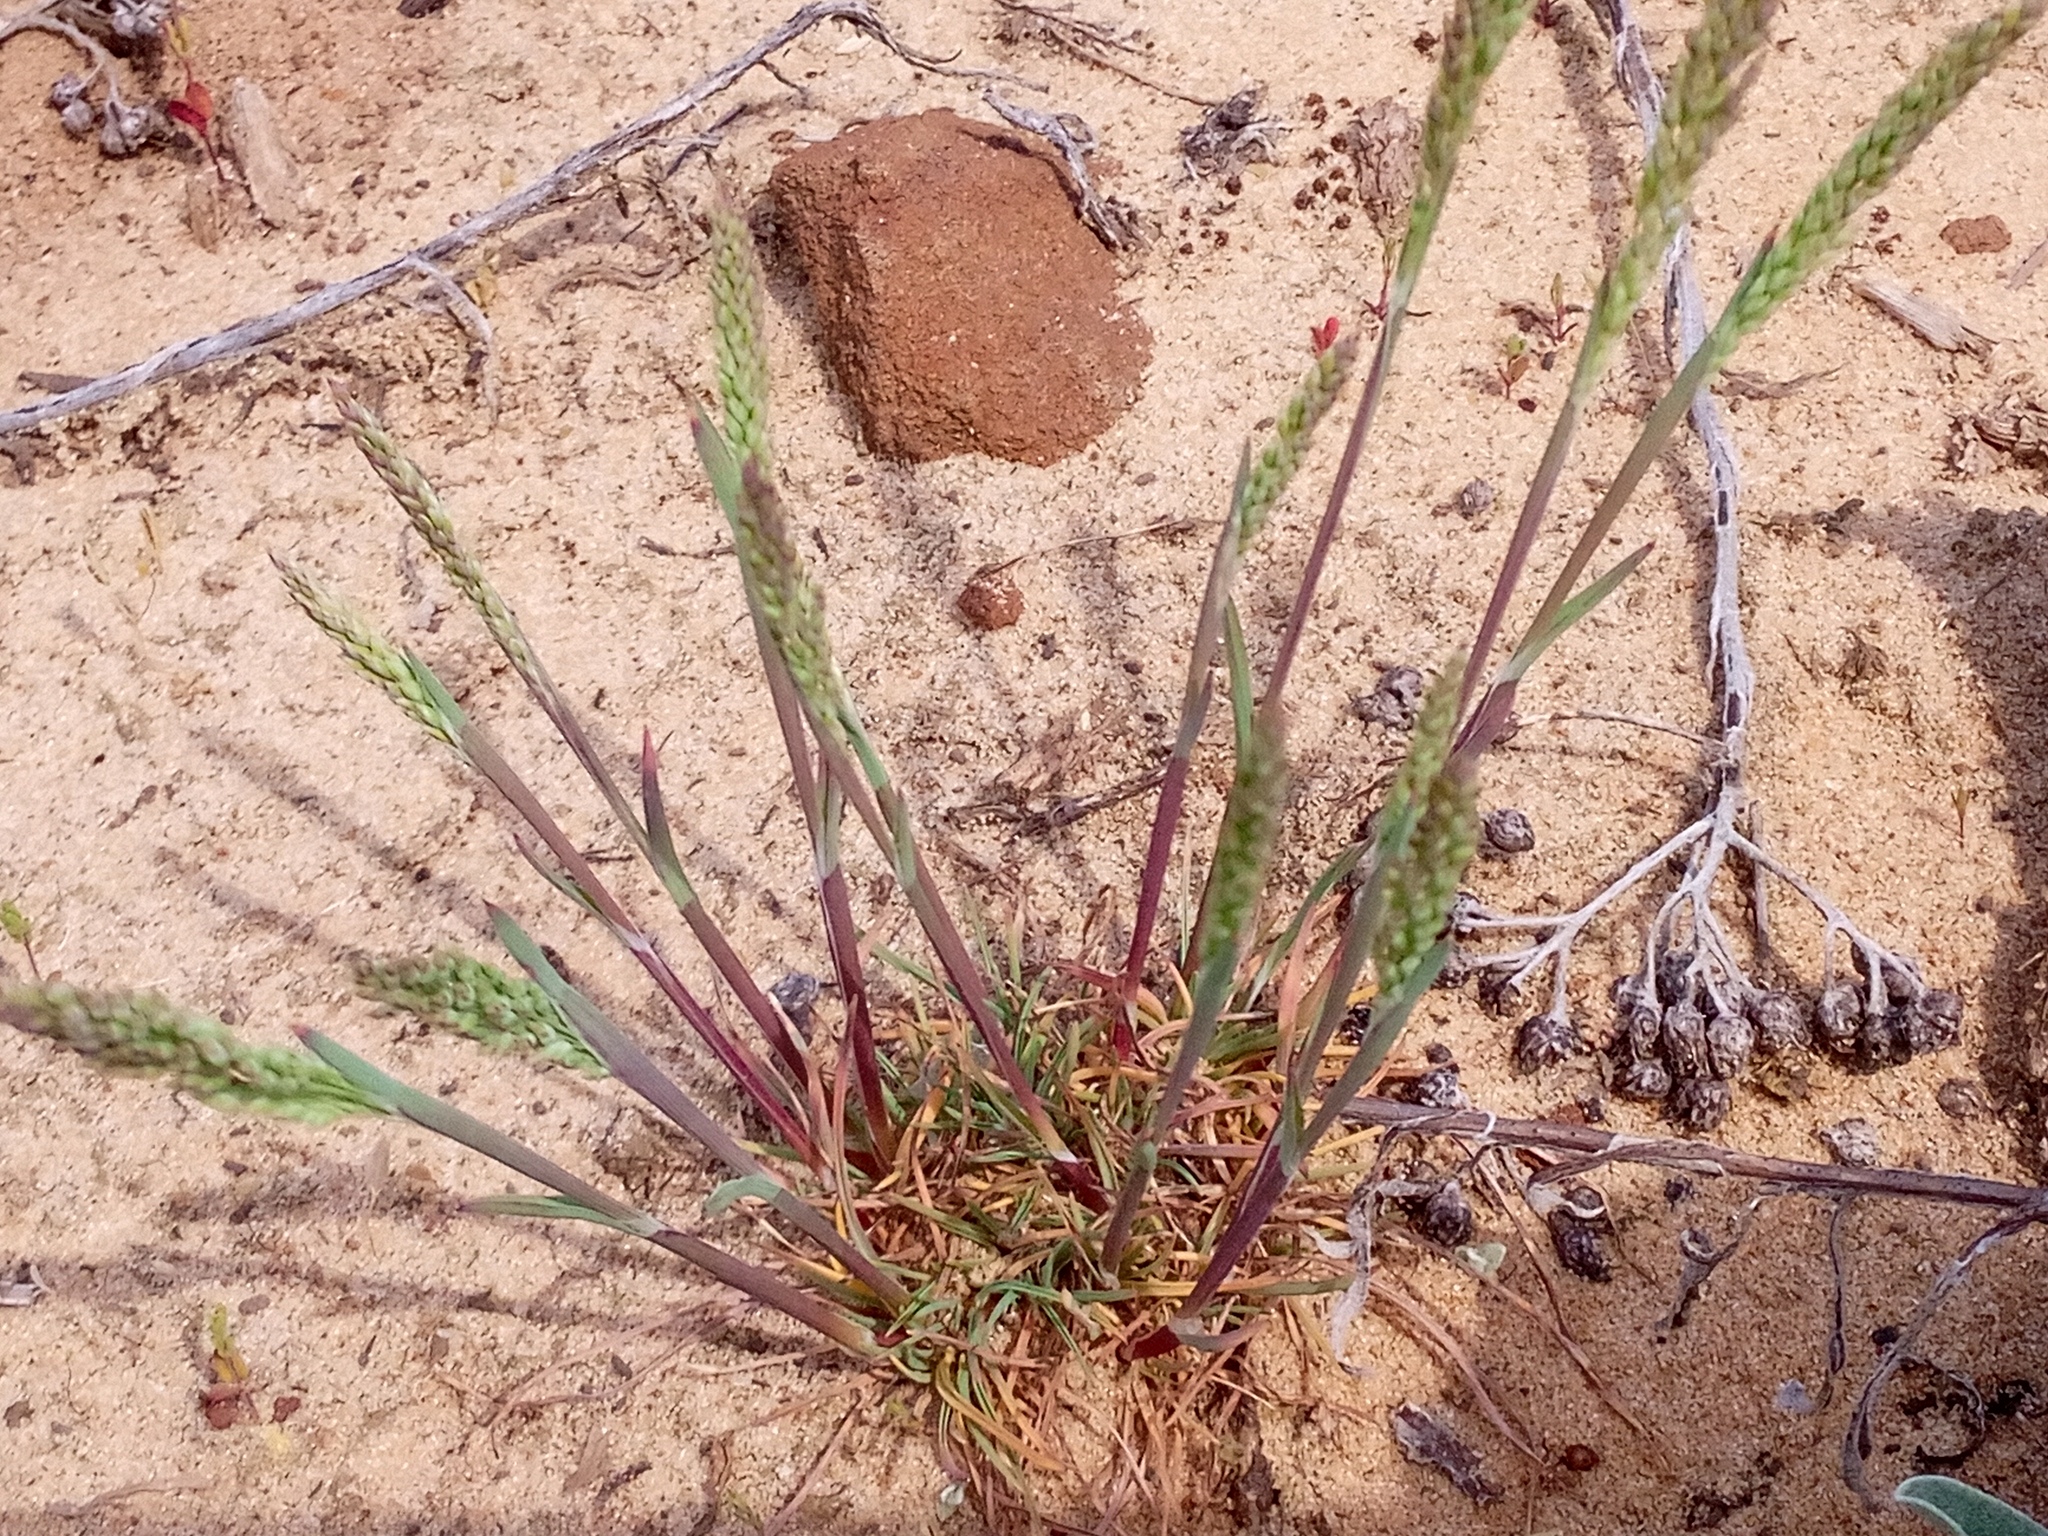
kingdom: Plantae
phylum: Tracheophyta
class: Liliopsida
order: Poales
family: Poaceae
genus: Poa
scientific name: Poa bulbosa
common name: Bulbous bluegrass
